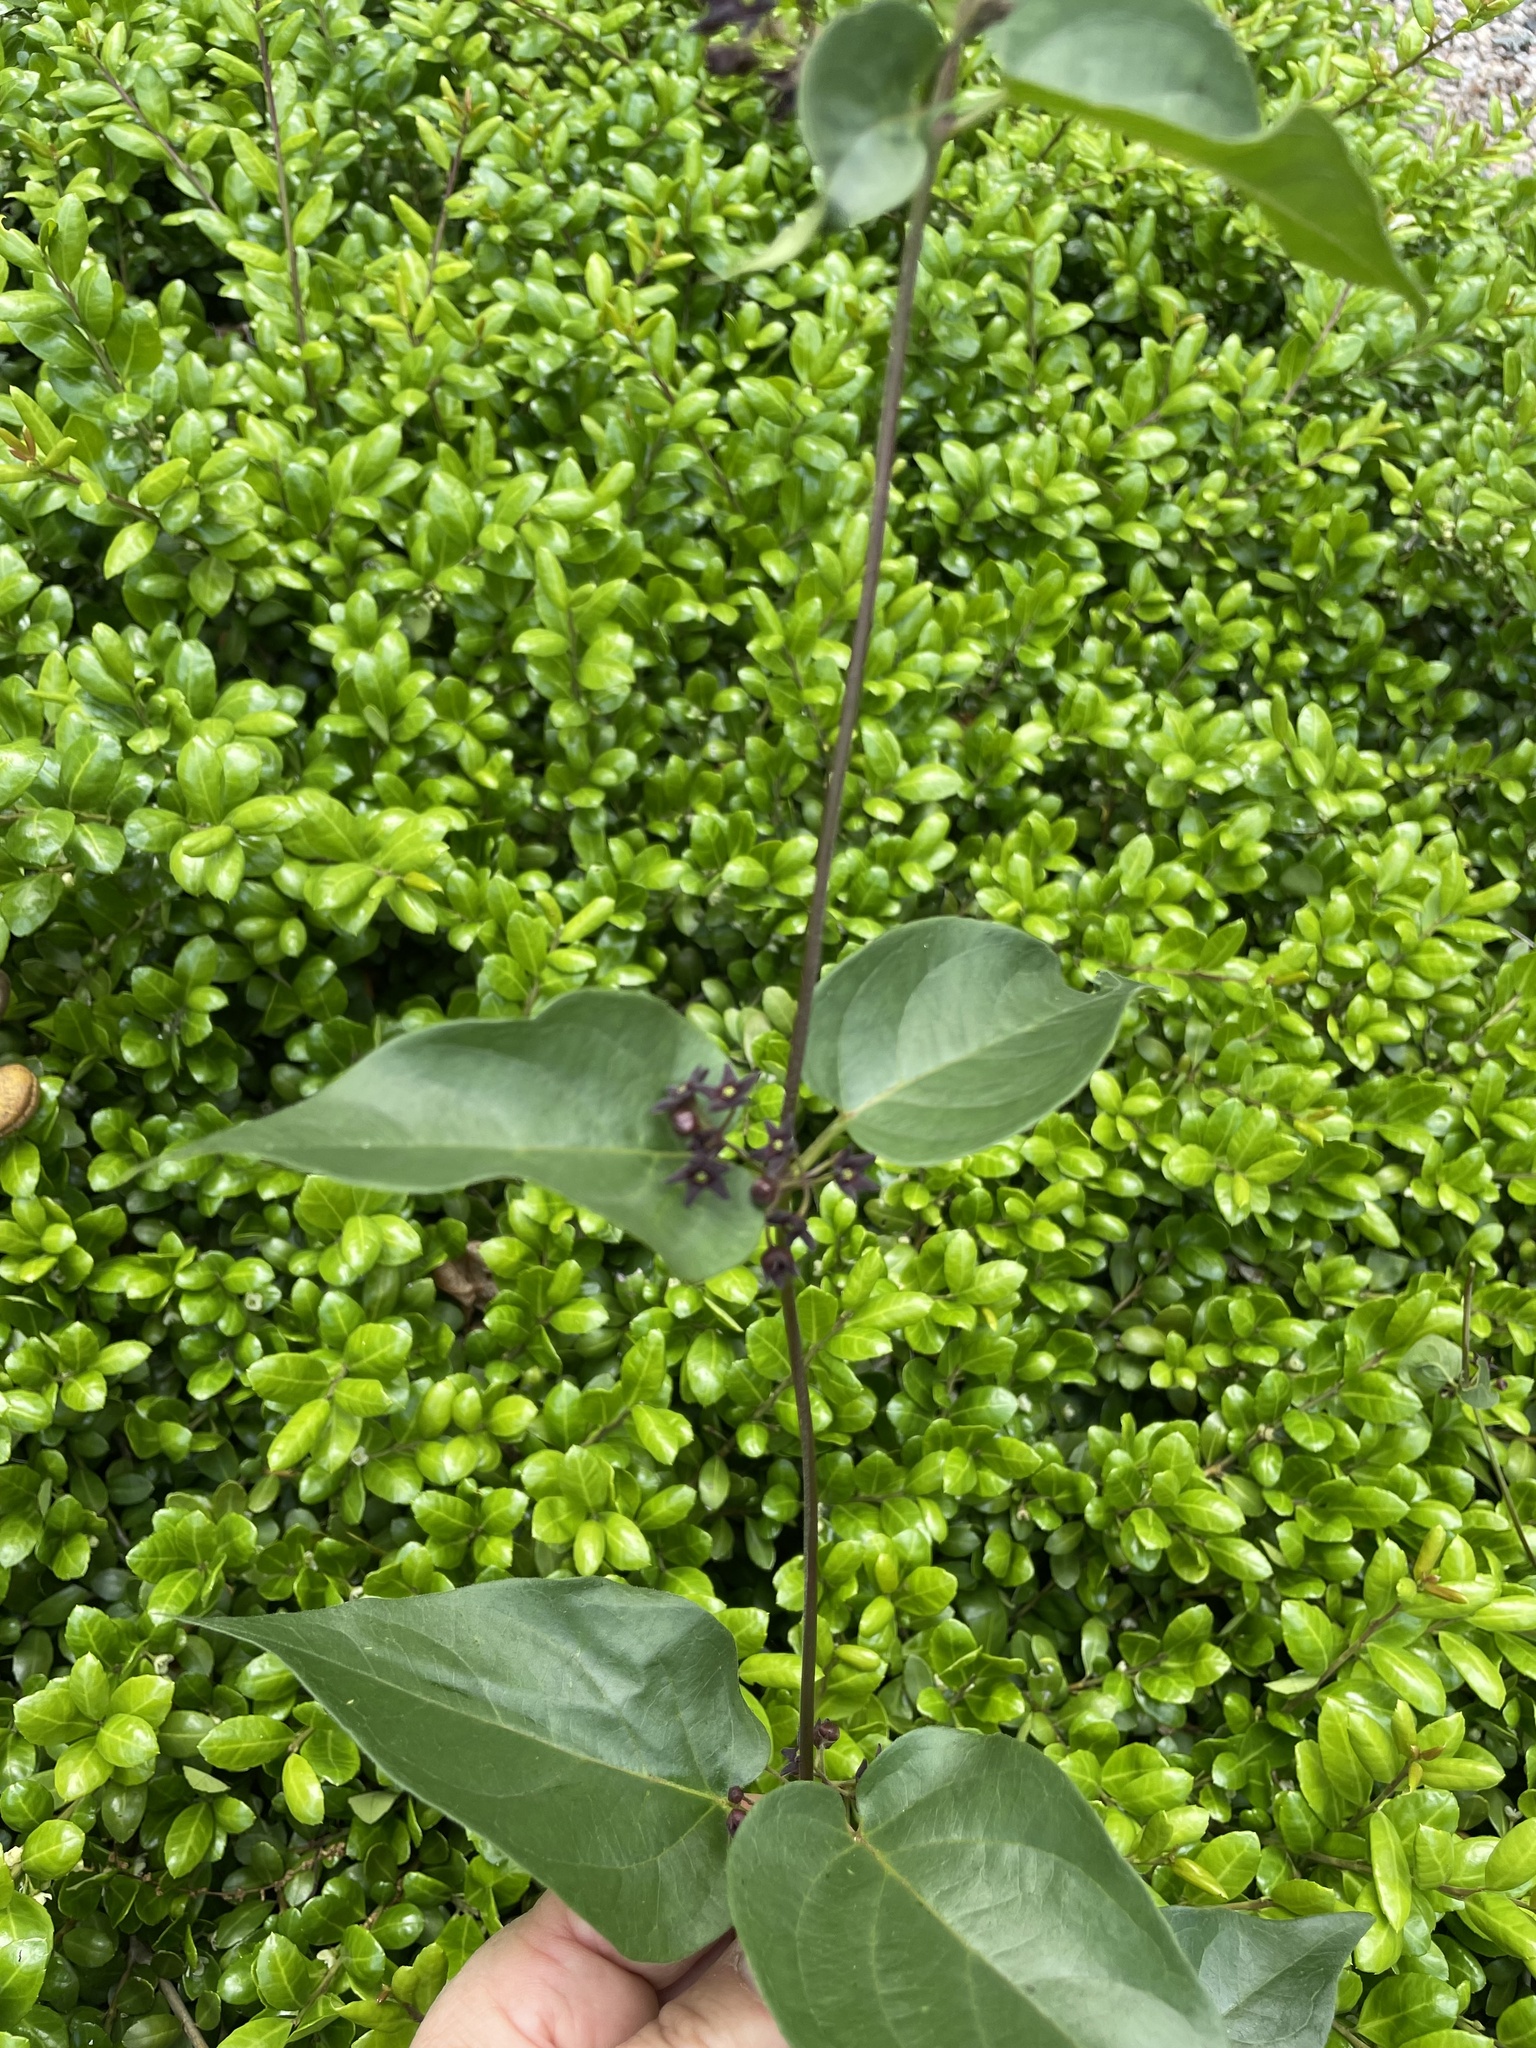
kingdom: Plantae
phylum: Tracheophyta
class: Magnoliopsida
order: Gentianales
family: Apocynaceae
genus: Vincetoxicum
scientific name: Vincetoxicum nigrum
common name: Black swallow-wort
